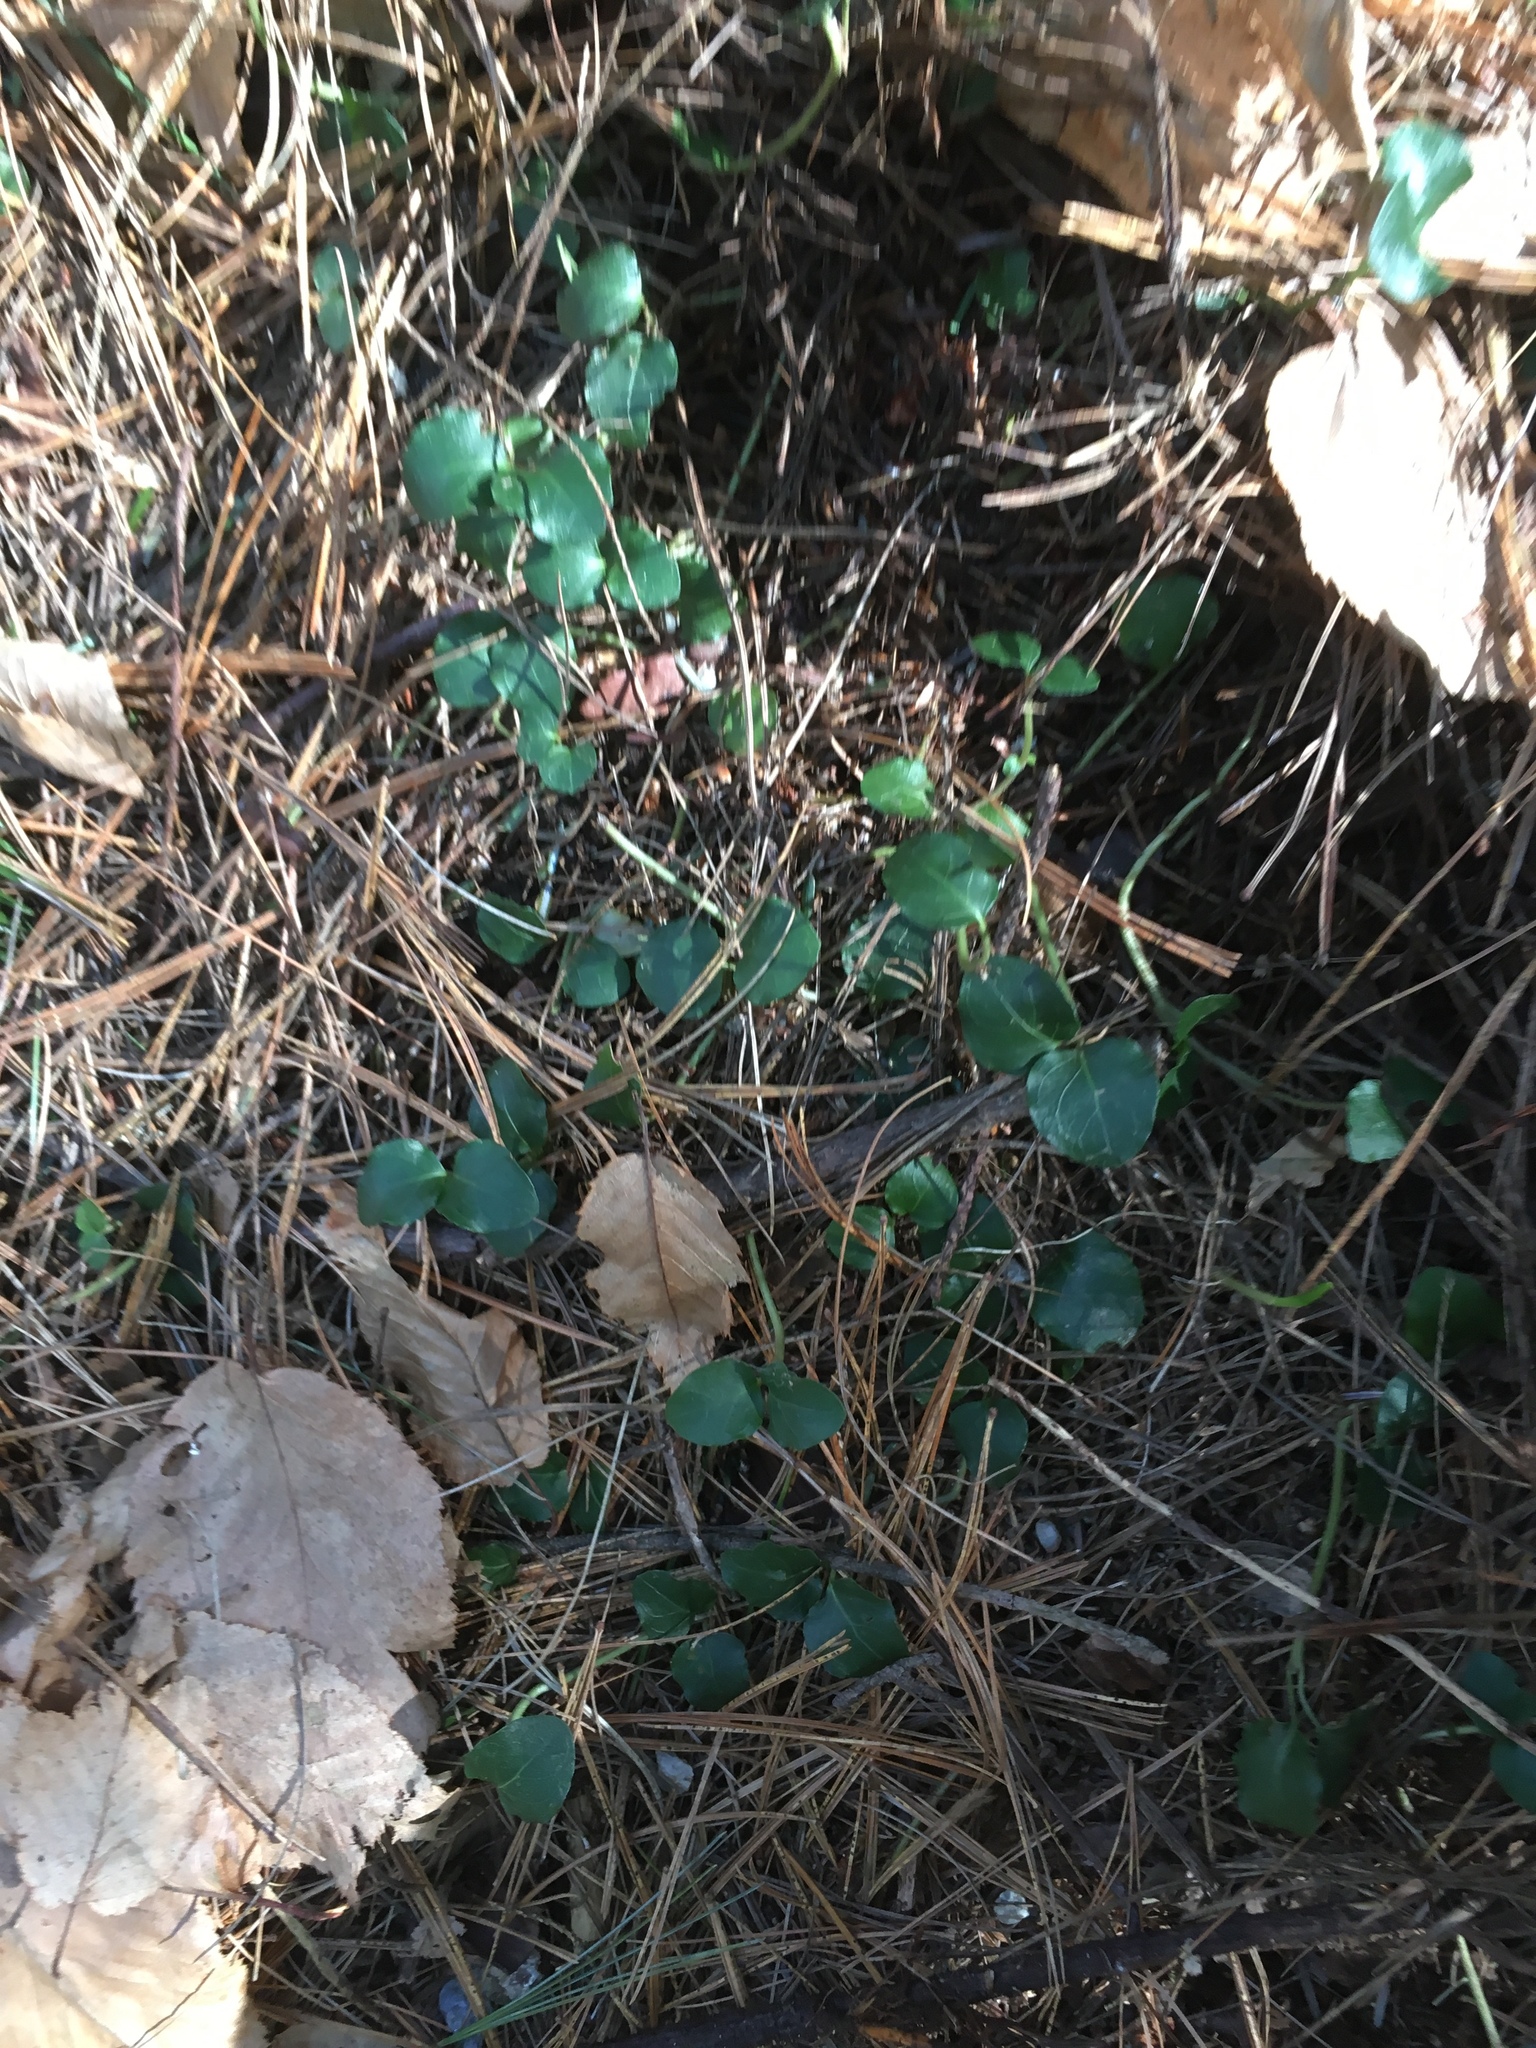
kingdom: Plantae
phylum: Tracheophyta
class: Magnoliopsida
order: Gentianales
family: Rubiaceae
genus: Mitchella
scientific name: Mitchella repens
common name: Partridge-berry
